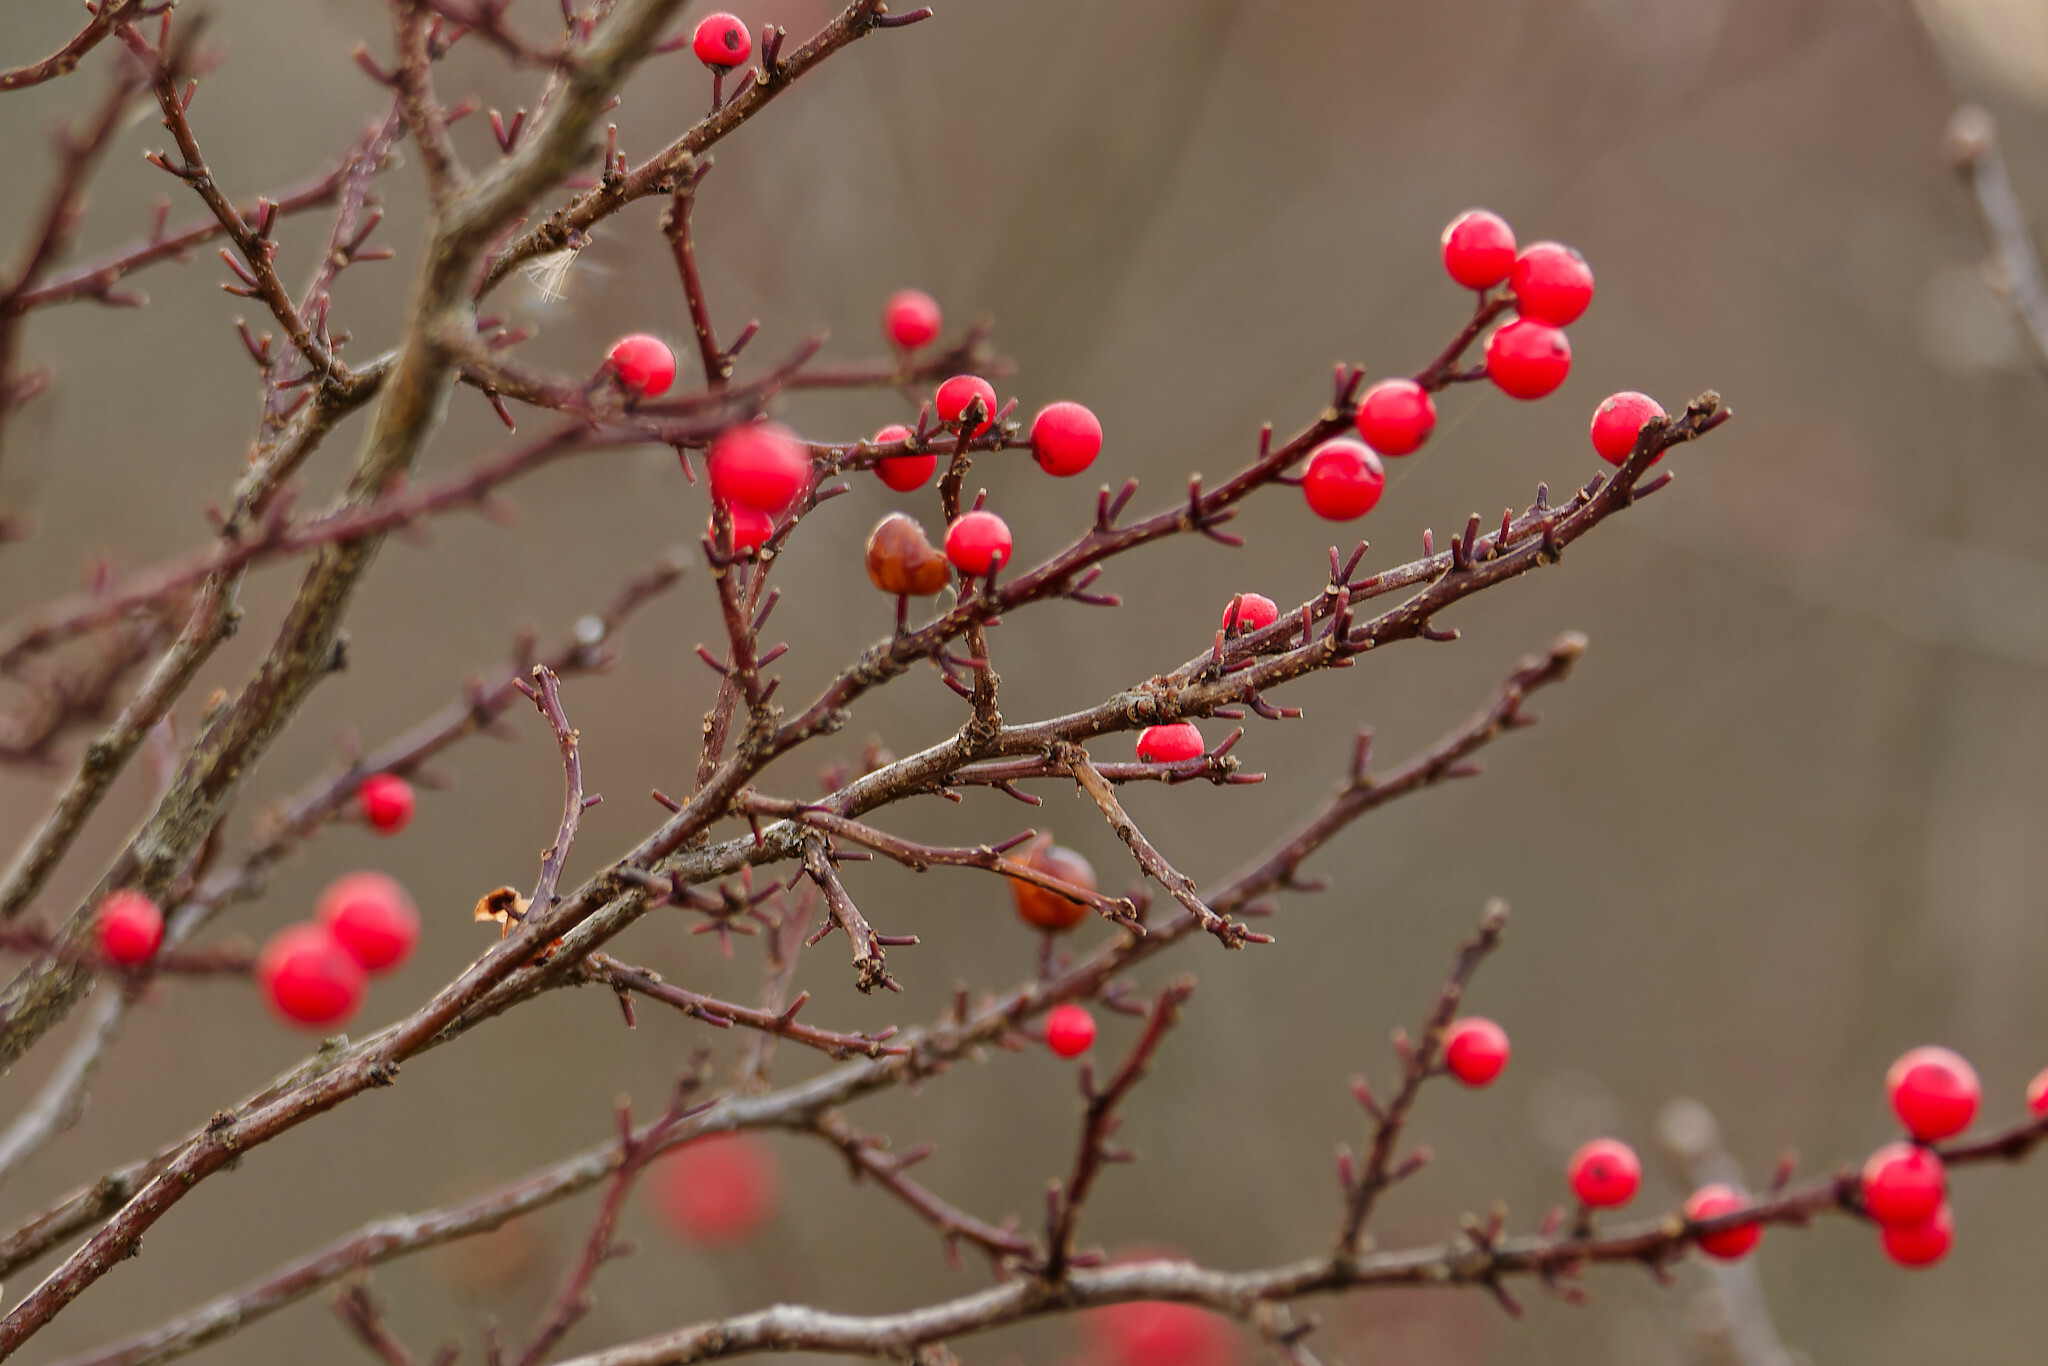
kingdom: Plantae
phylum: Tracheophyta
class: Magnoliopsida
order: Aquifoliales
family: Aquifoliaceae
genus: Ilex
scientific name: Ilex verticillata
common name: Virginia winterberry
